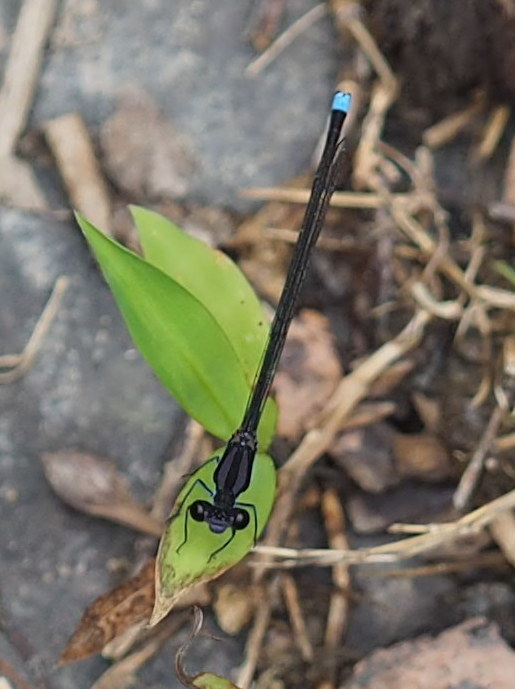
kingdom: Animalia
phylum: Arthropoda
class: Insecta
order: Odonata
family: Coenagrionidae
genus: Argia
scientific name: Argia tibialis
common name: Blue-tipped dancer
